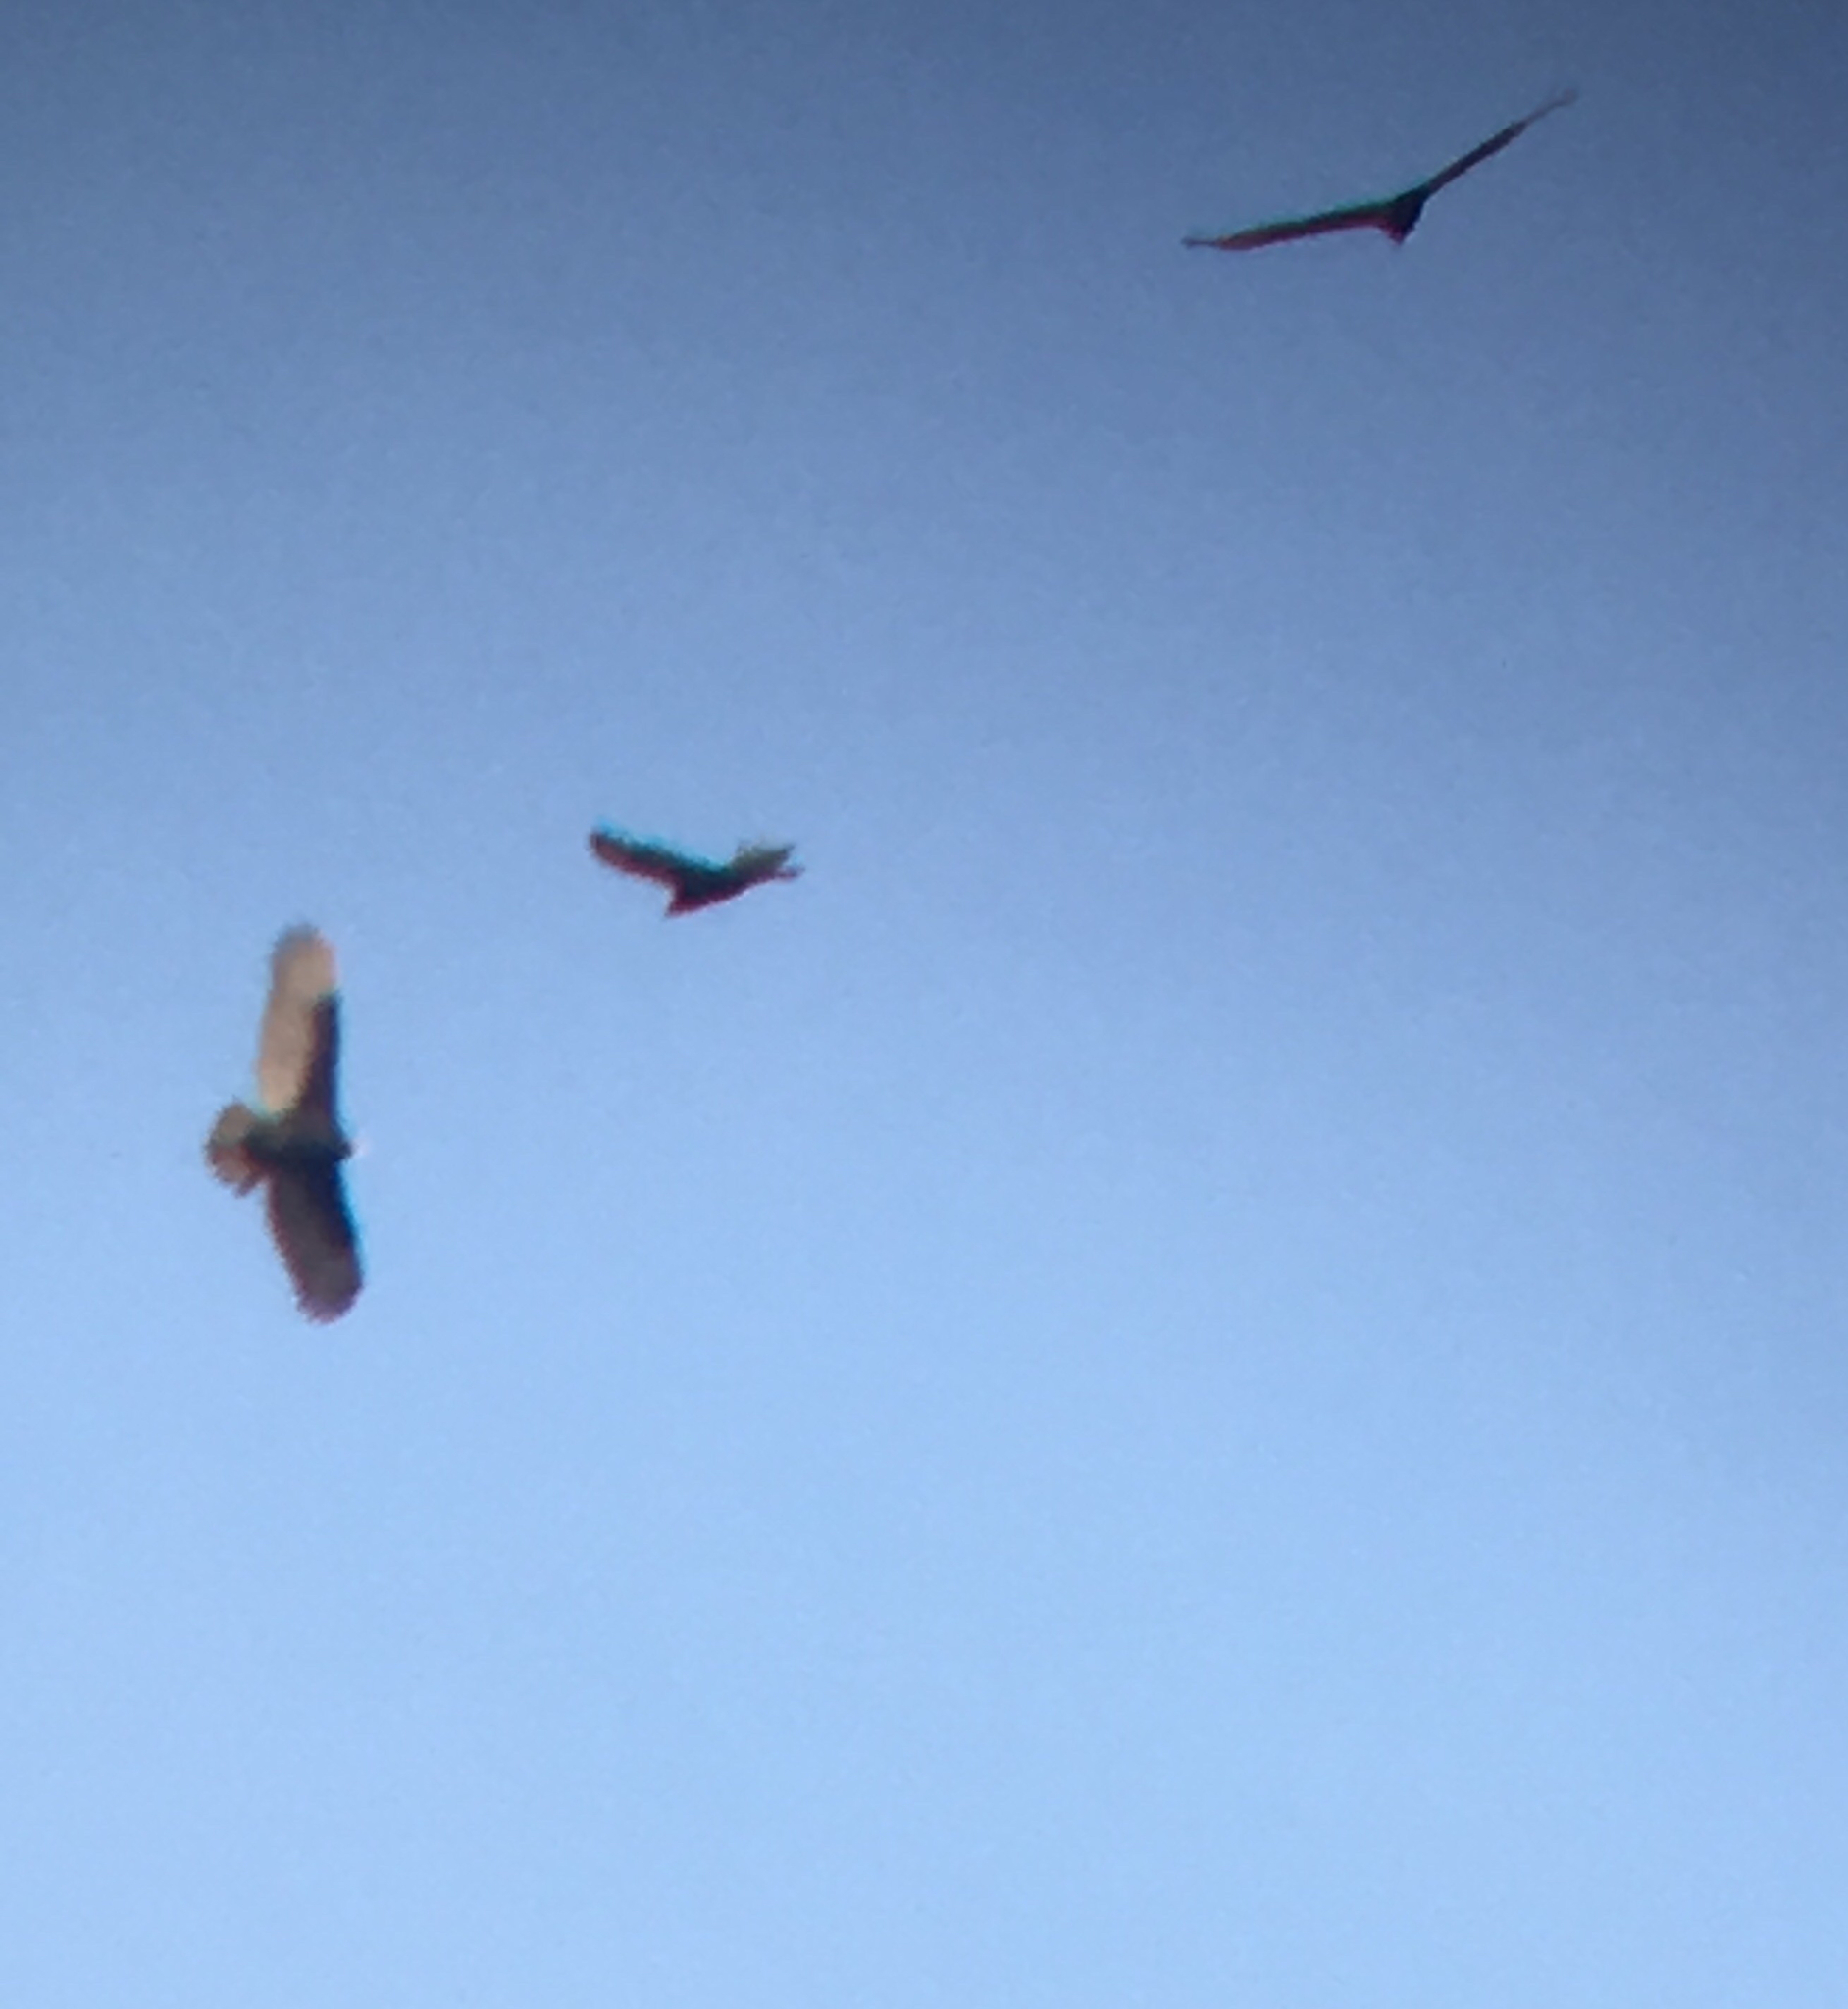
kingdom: Animalia
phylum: Chordata
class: Aves
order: Accipitriformes
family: Cathartidae
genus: Cathartes
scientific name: Cathartes aura
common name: Turkey vulture
